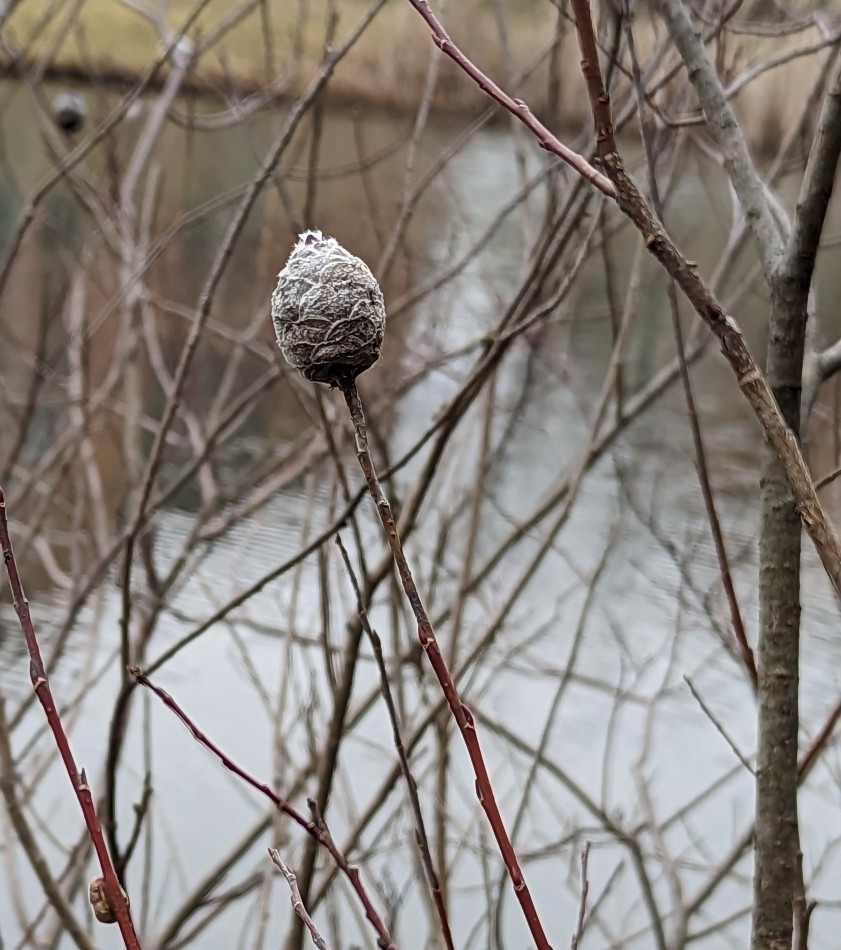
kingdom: Animalia
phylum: Arthropoda
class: Insecta
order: Diptera
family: Cecidomyiidae
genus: Rabdophaga
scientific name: Rabdophaga strobiloides
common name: Willow pinecone gall midge
